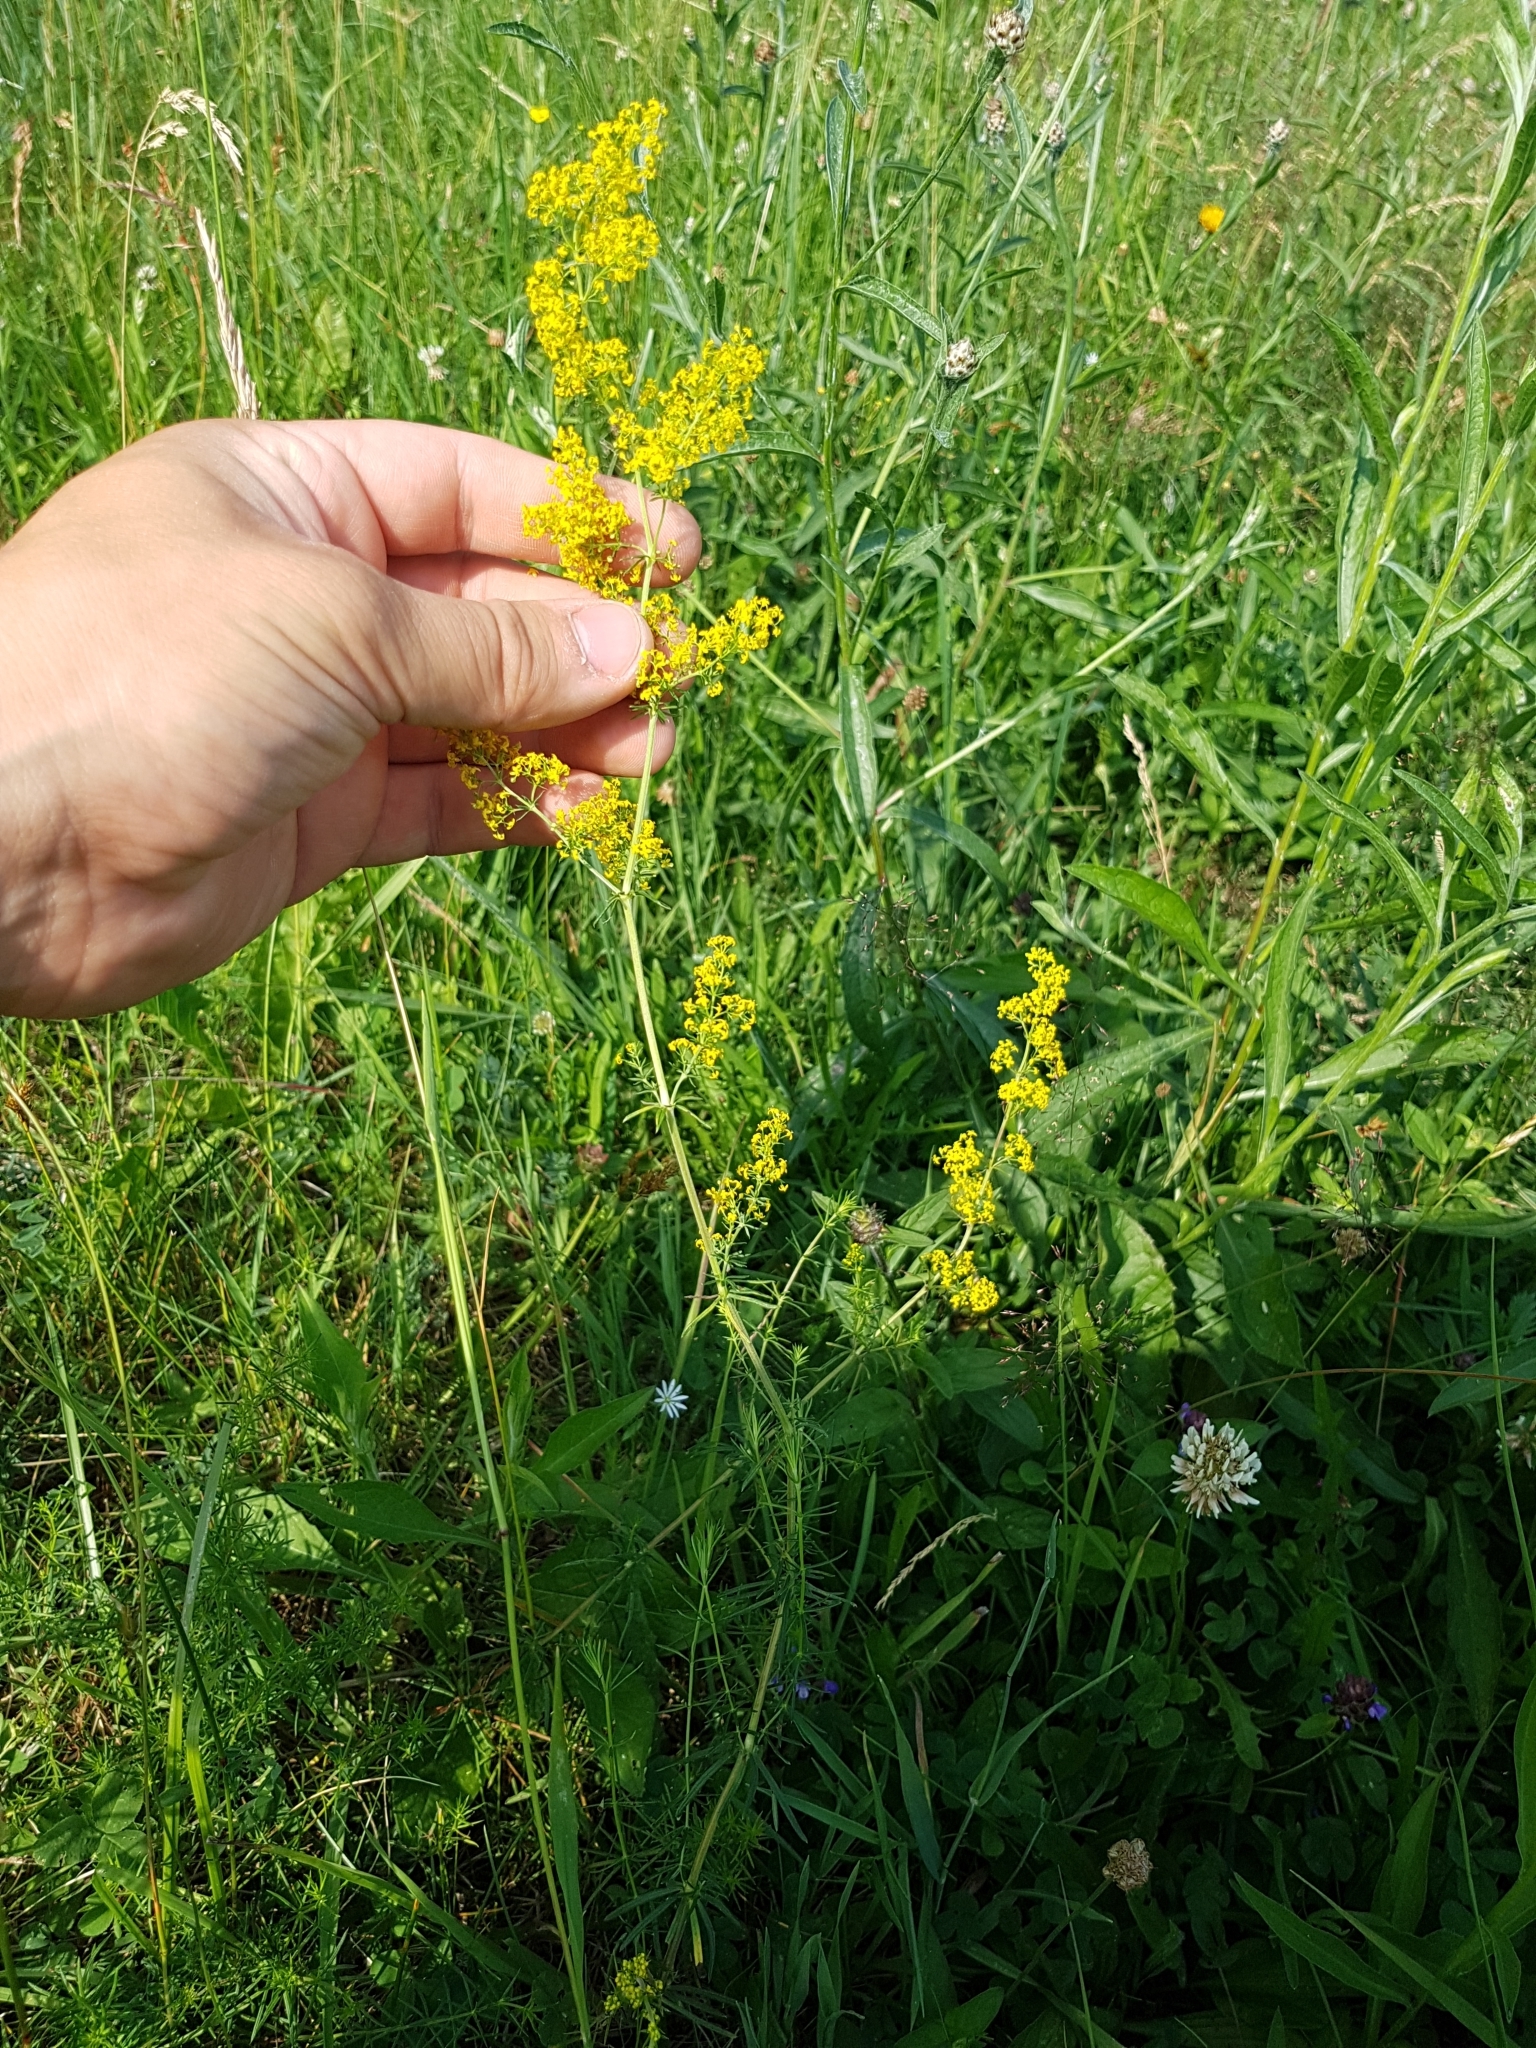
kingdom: Plantae
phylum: Tracheophyta
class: Magnoliopsida
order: Gentianales
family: Rubiaceae
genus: Galium
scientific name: Galium verum
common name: Lady's bedstraw
